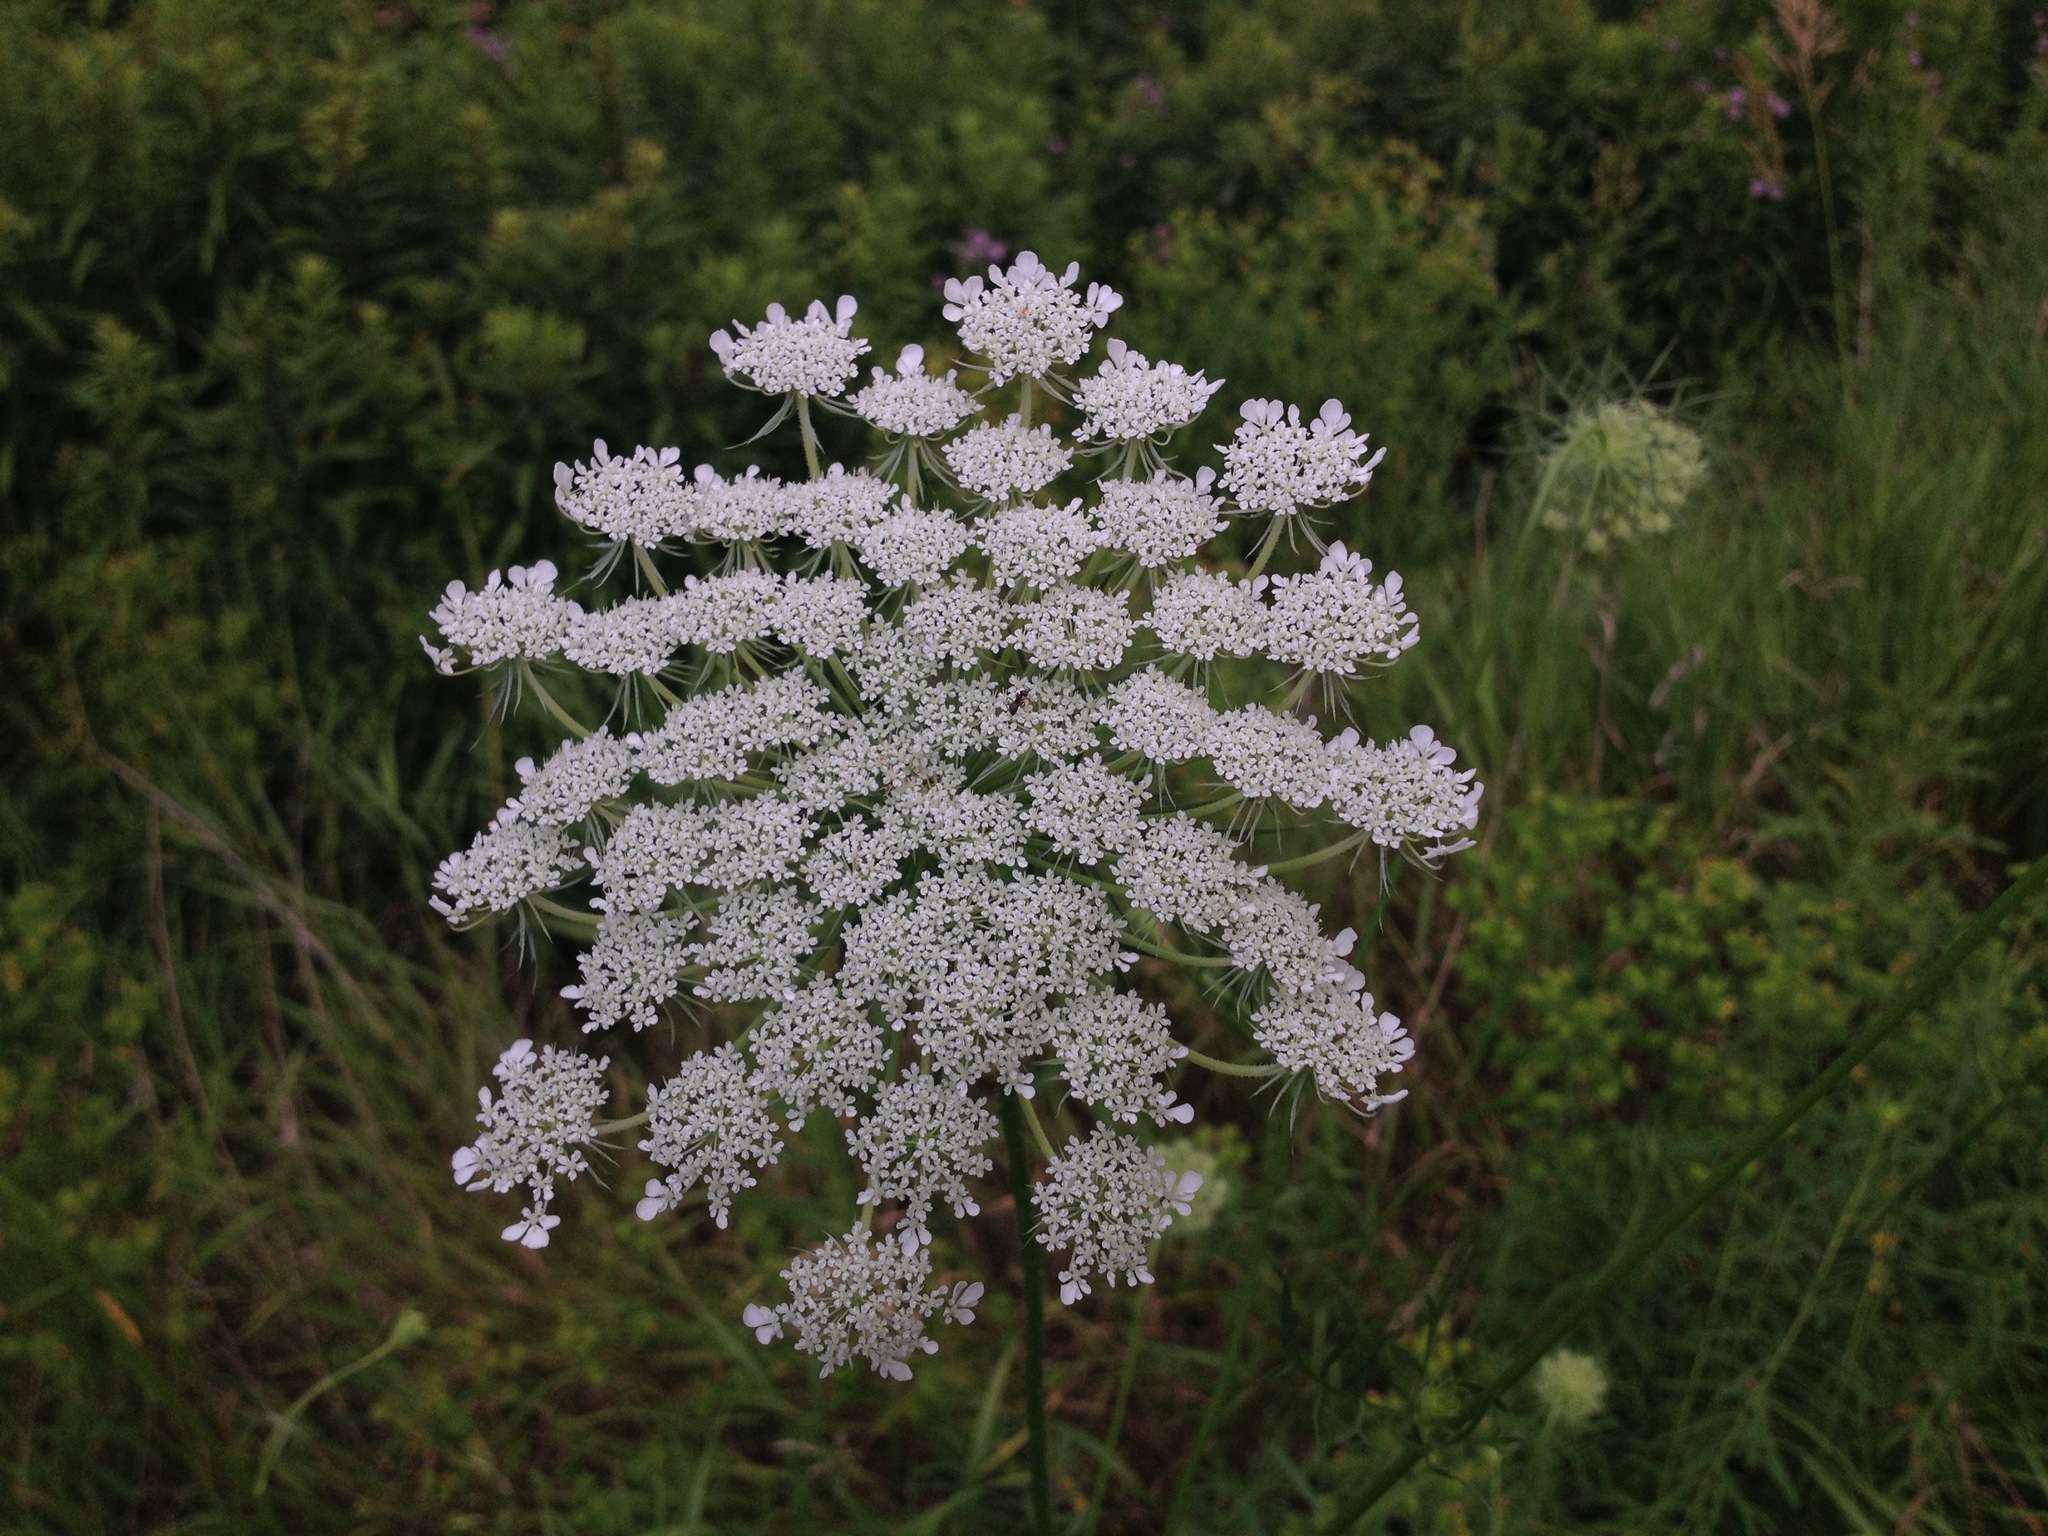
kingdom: Plantae
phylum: Tracheophyta
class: Magnoliopsida
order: Apiales
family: Apiaceae
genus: Daucus
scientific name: Daucus carota
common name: Wild carrot
